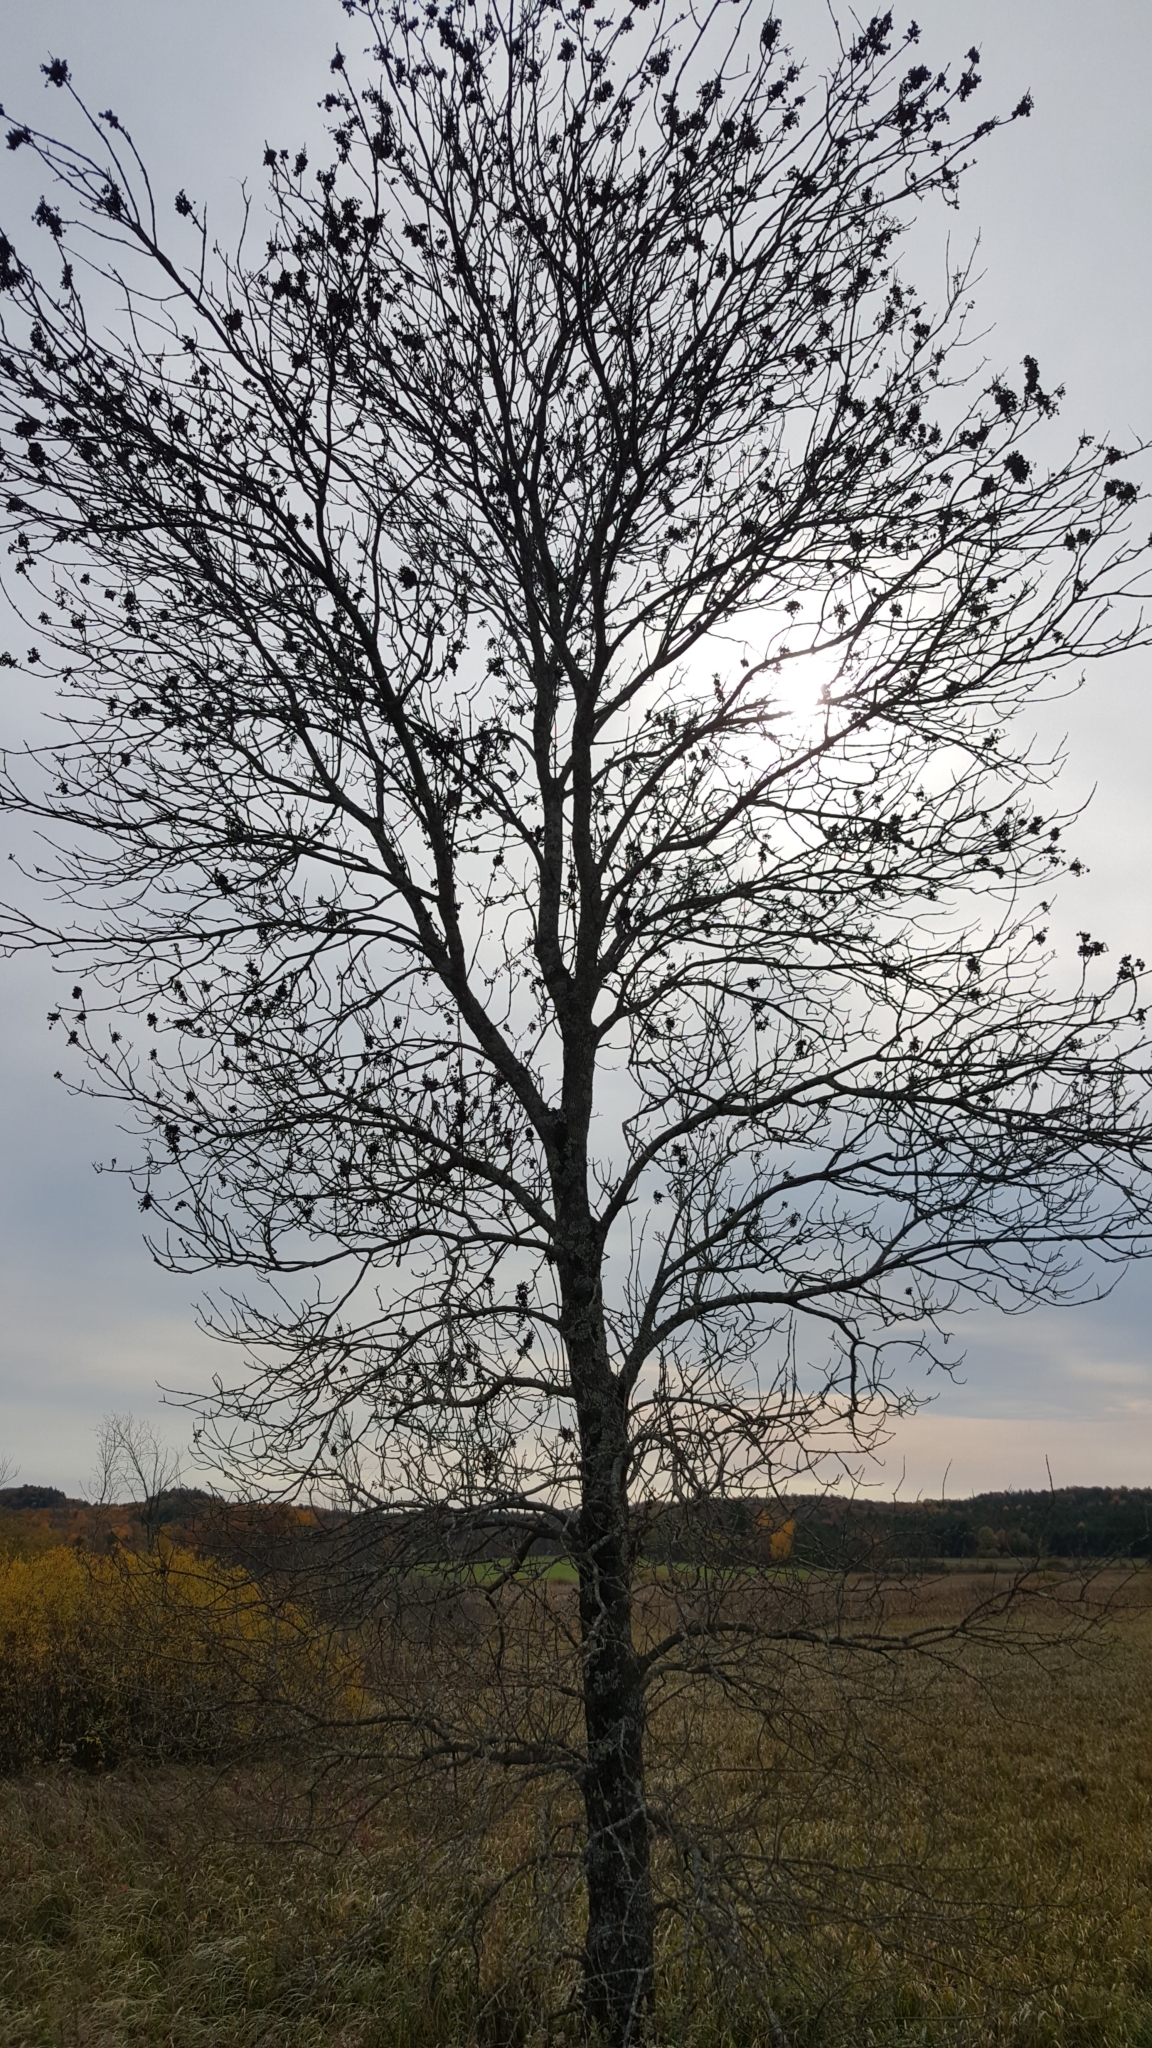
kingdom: Plantae
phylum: Tracheophyta
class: Magnoliopsida
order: Lamiales
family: Oleaceae
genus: Fraxinus
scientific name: Fraxinus pennsylvanica
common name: Green ash
